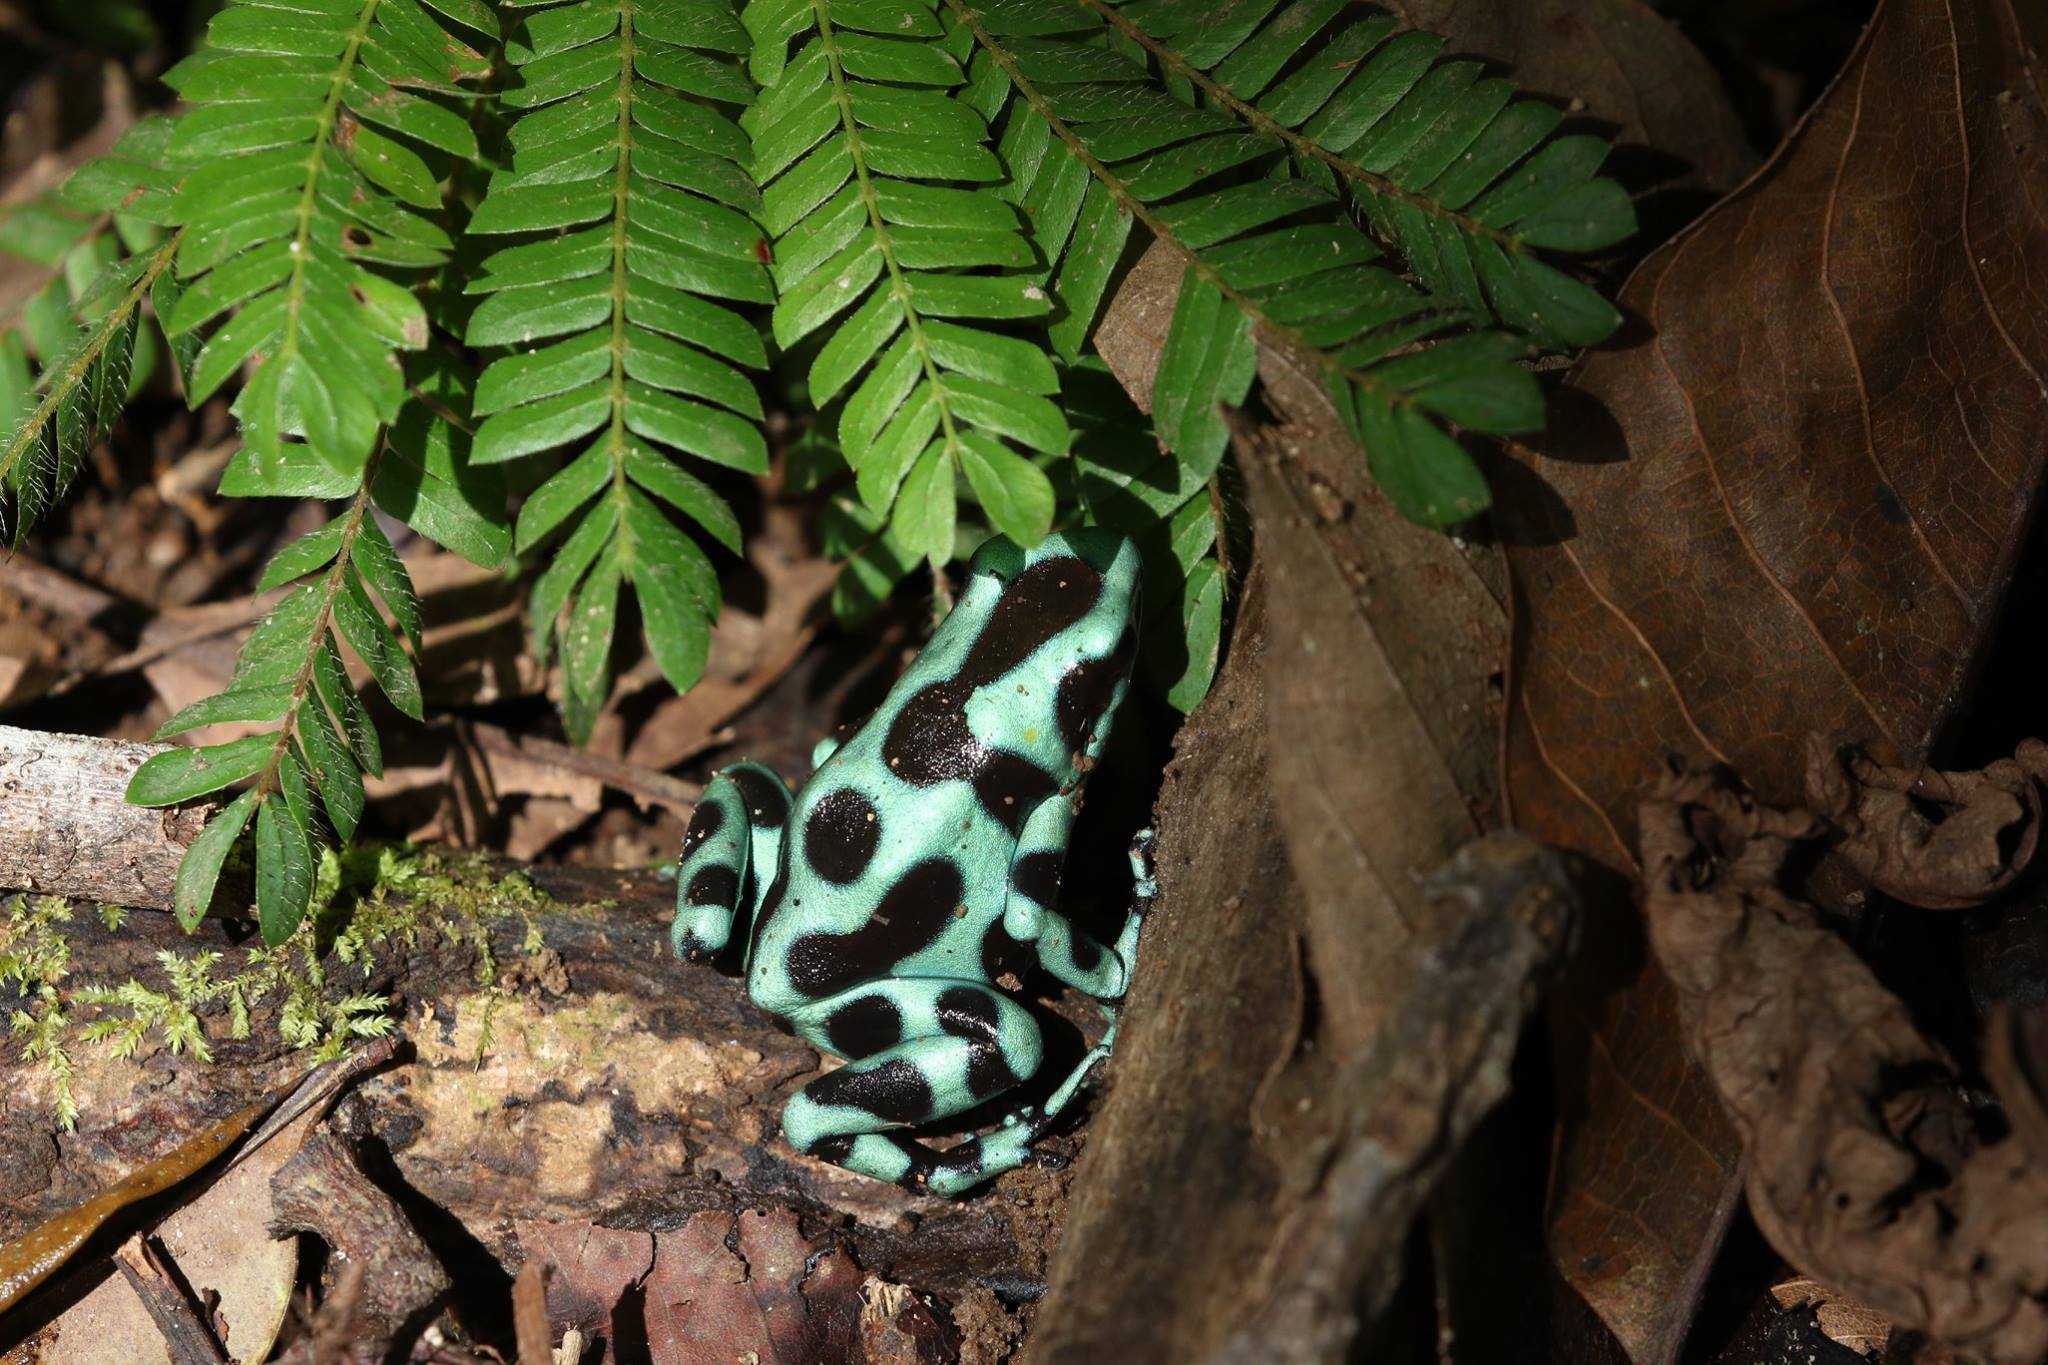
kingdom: Animalia
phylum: Chordata
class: Amphibia
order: Anura
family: Dendrobatidae
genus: Dendrobates
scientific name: Dendrobates auratus
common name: Green and black poison dart frog
